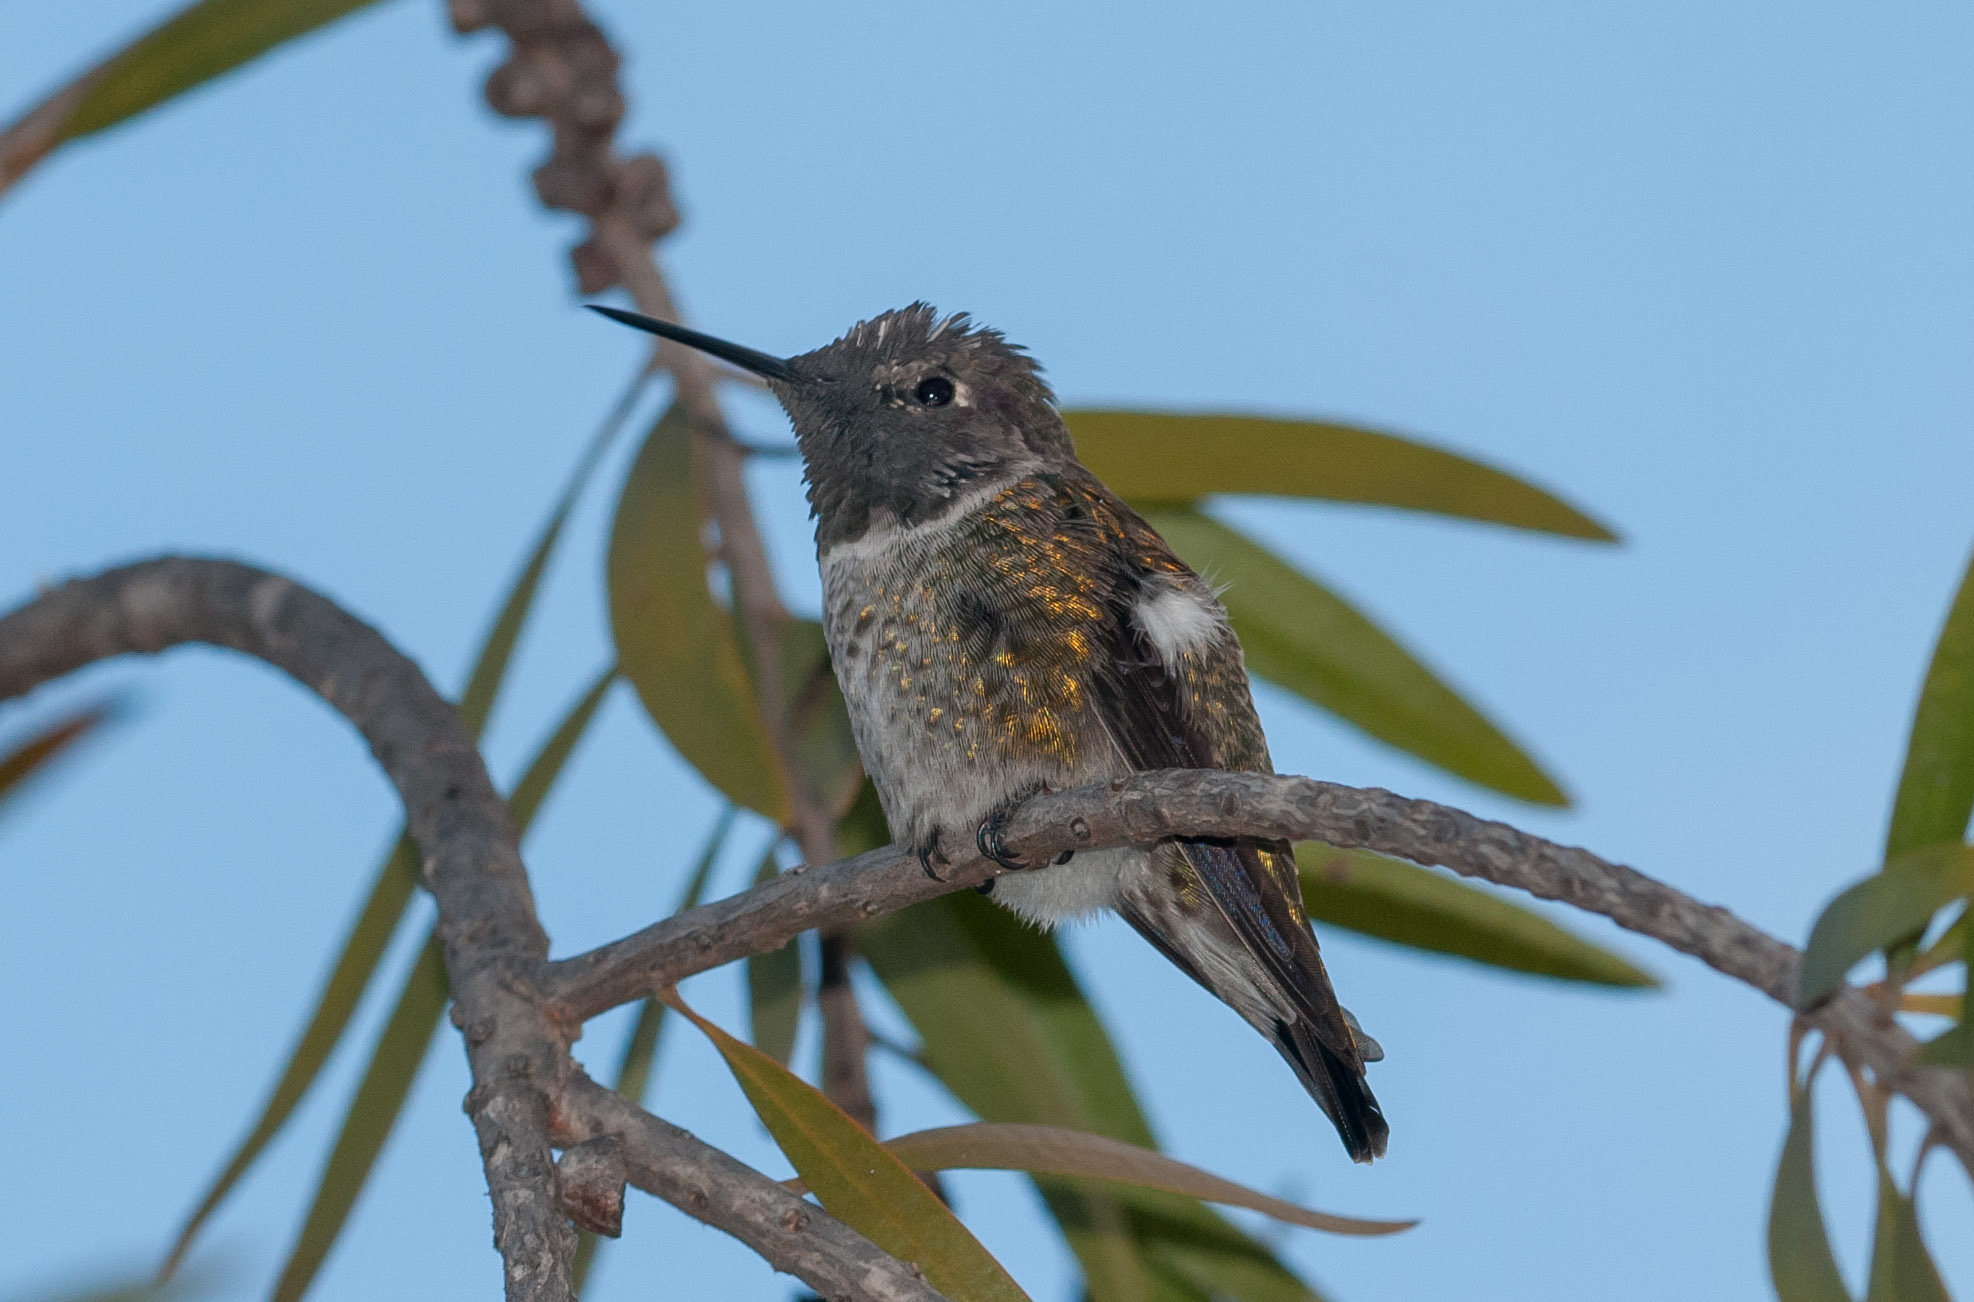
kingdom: Animalia
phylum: Chordata
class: Aves
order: Apodiformes
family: Trochilidae
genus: Calypte
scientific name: Calypte anna
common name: Anna's hummingbird
